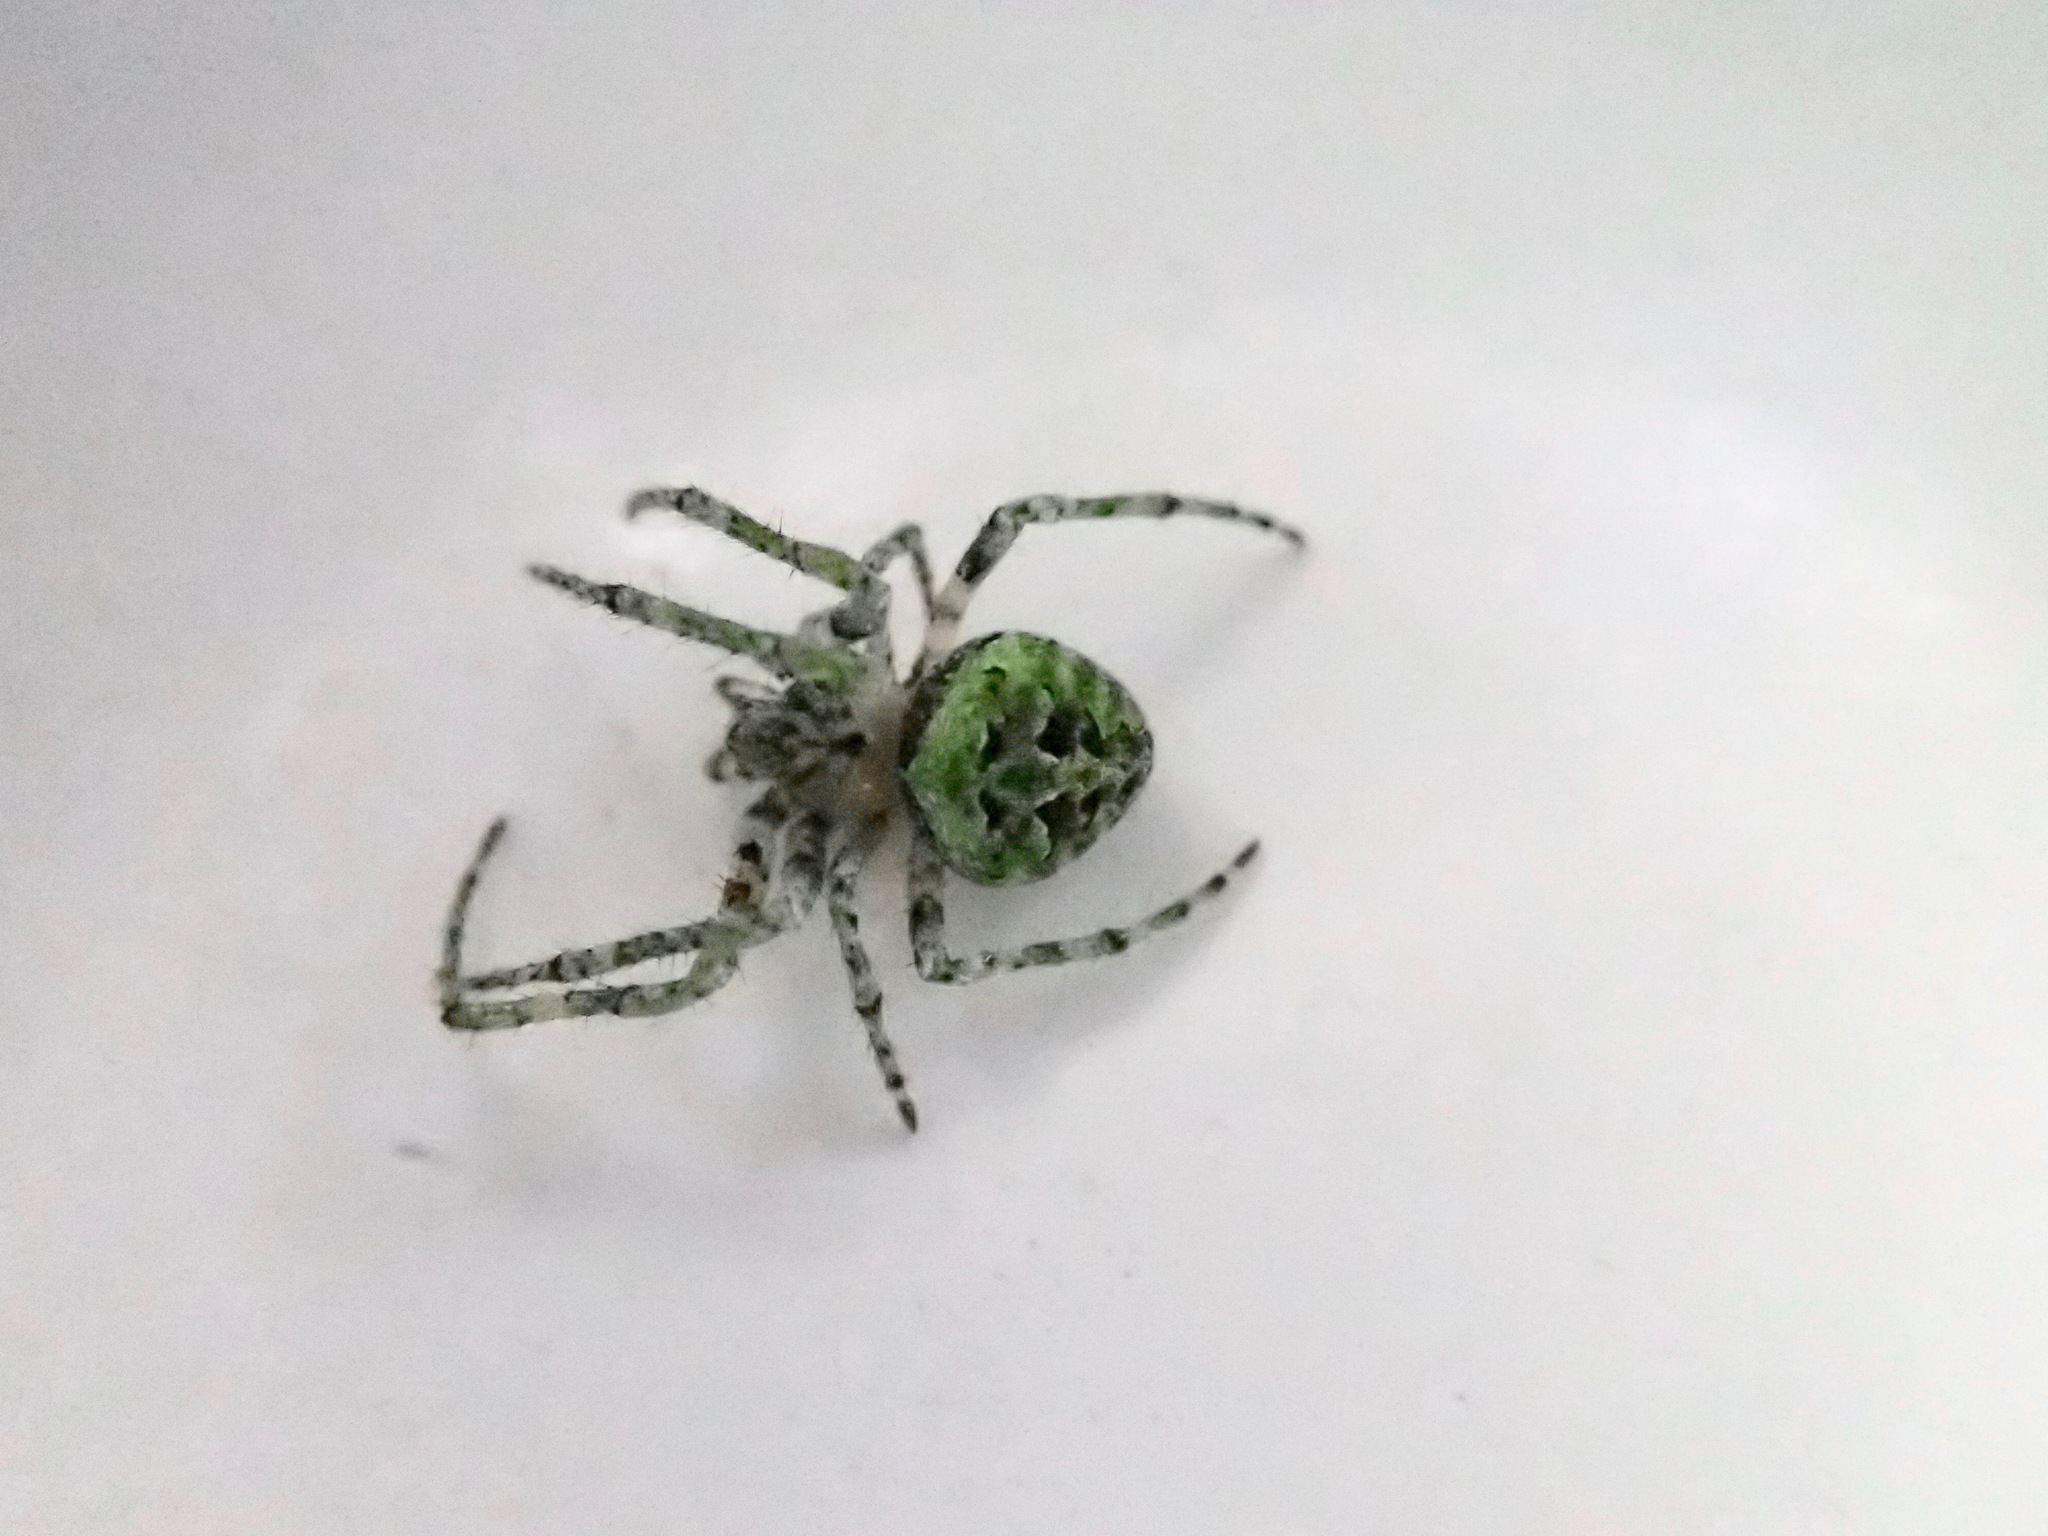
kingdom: Animalia
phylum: Arthropoda
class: Arachnida
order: Araneae
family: Araneidae
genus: Cryptaranea
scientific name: Cryptaranea
